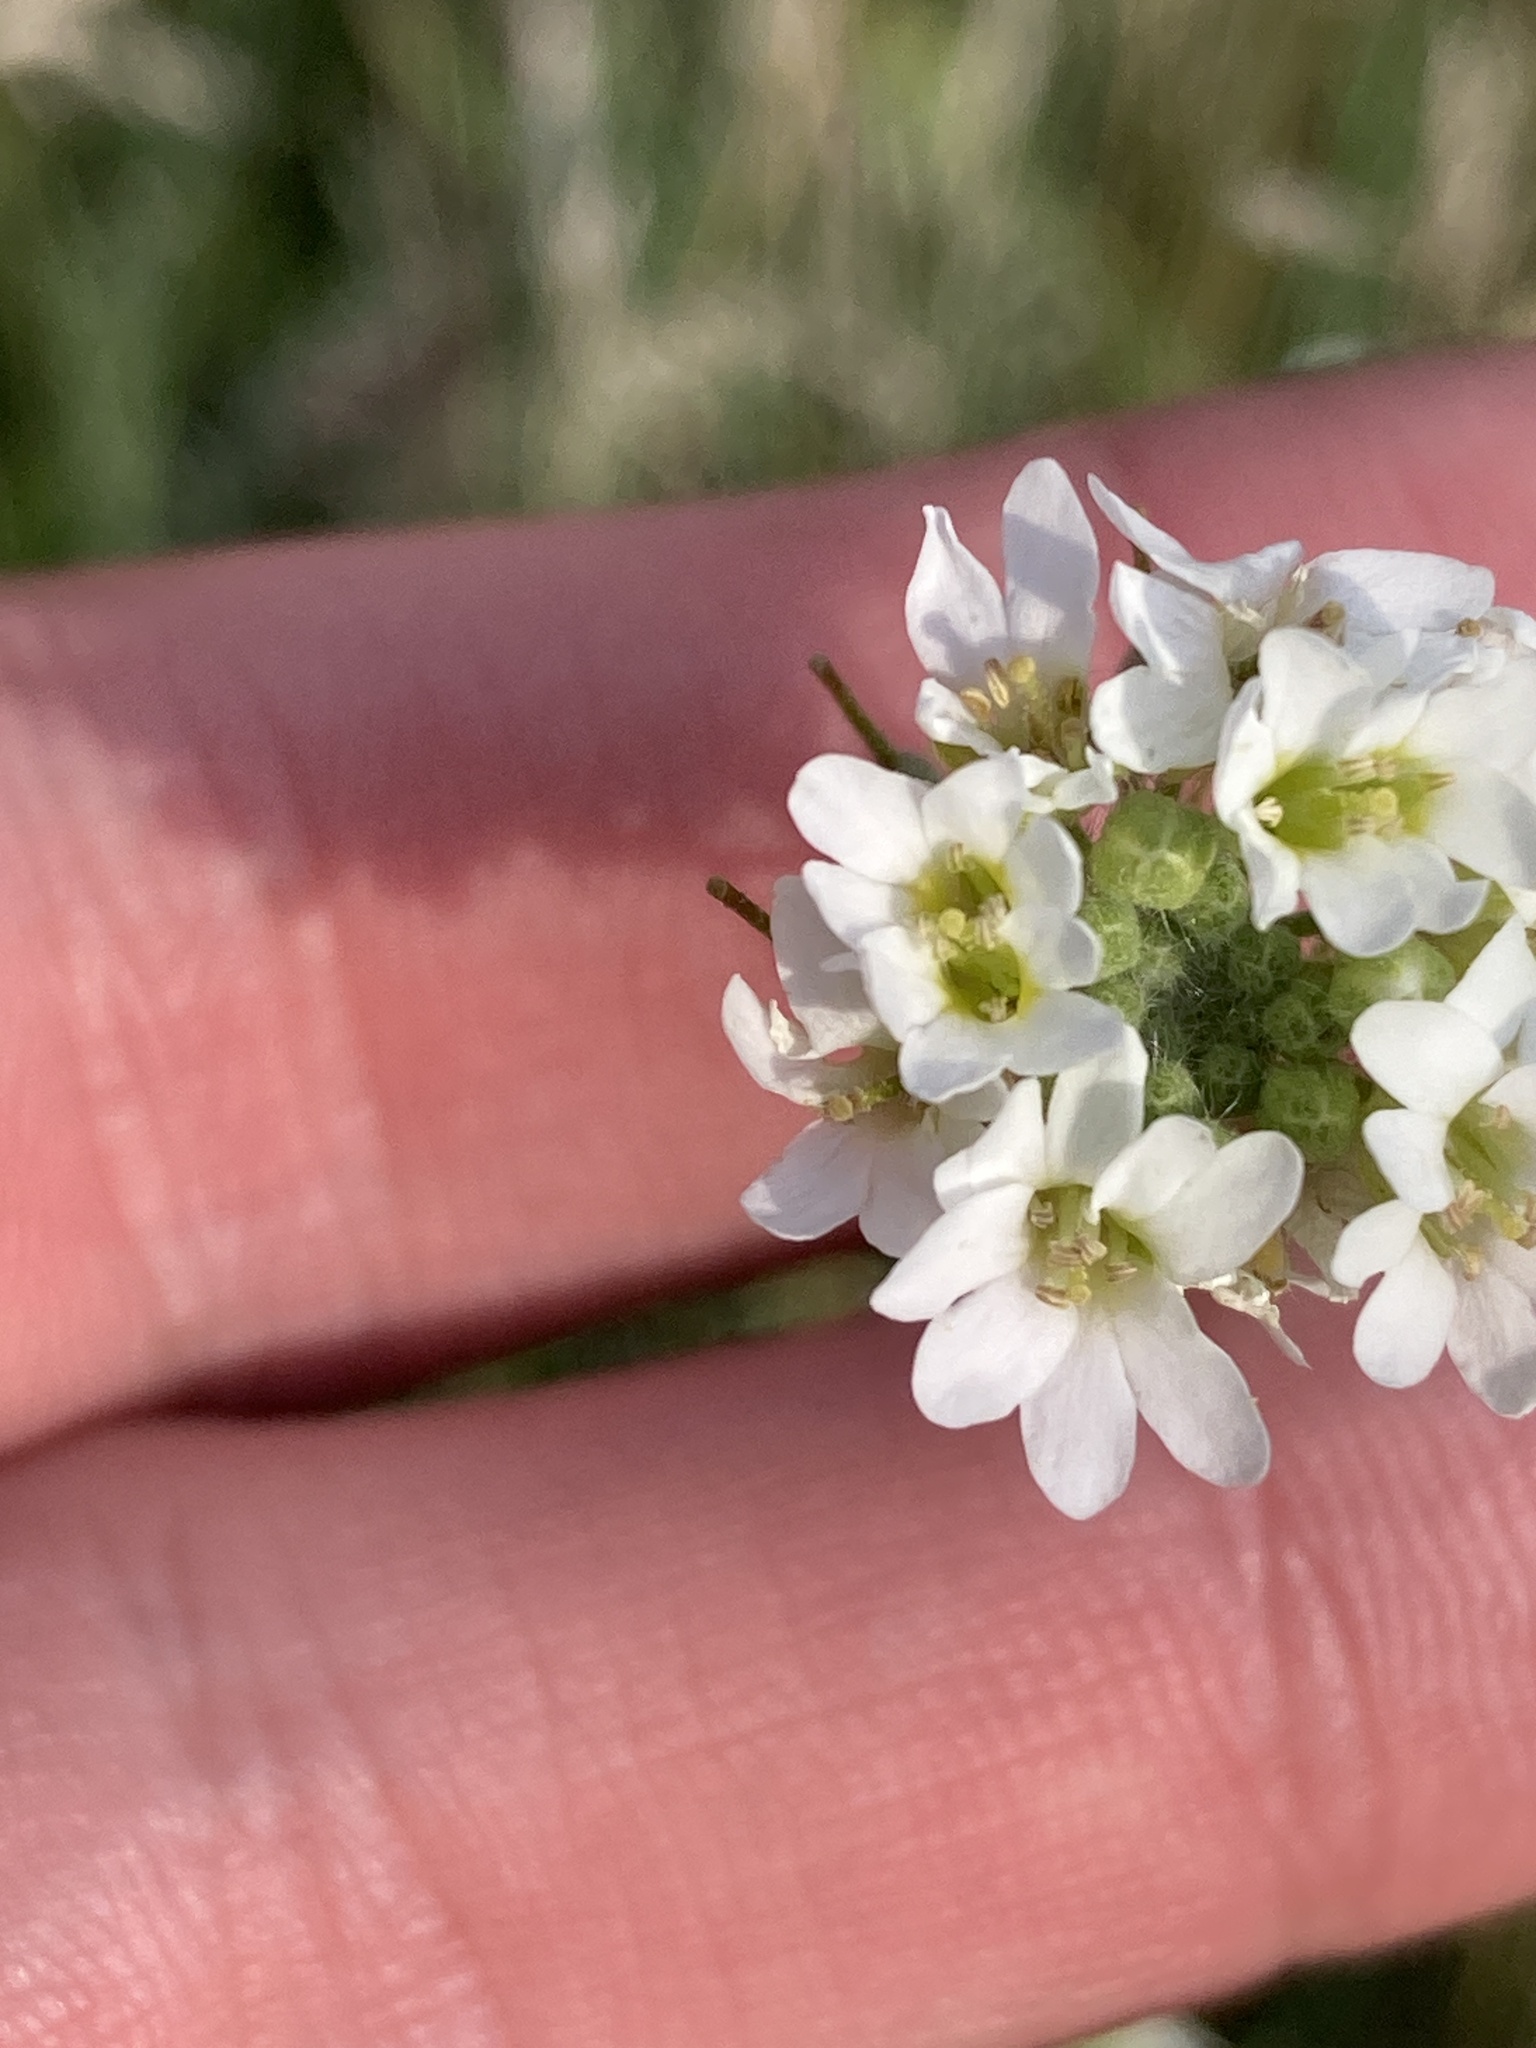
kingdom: Plantae
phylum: Tracheophyta
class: Magnoliopsida
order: Brassicales
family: Brassicaceae
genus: Berteroa
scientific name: Berteroa incana
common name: Hoary alison
